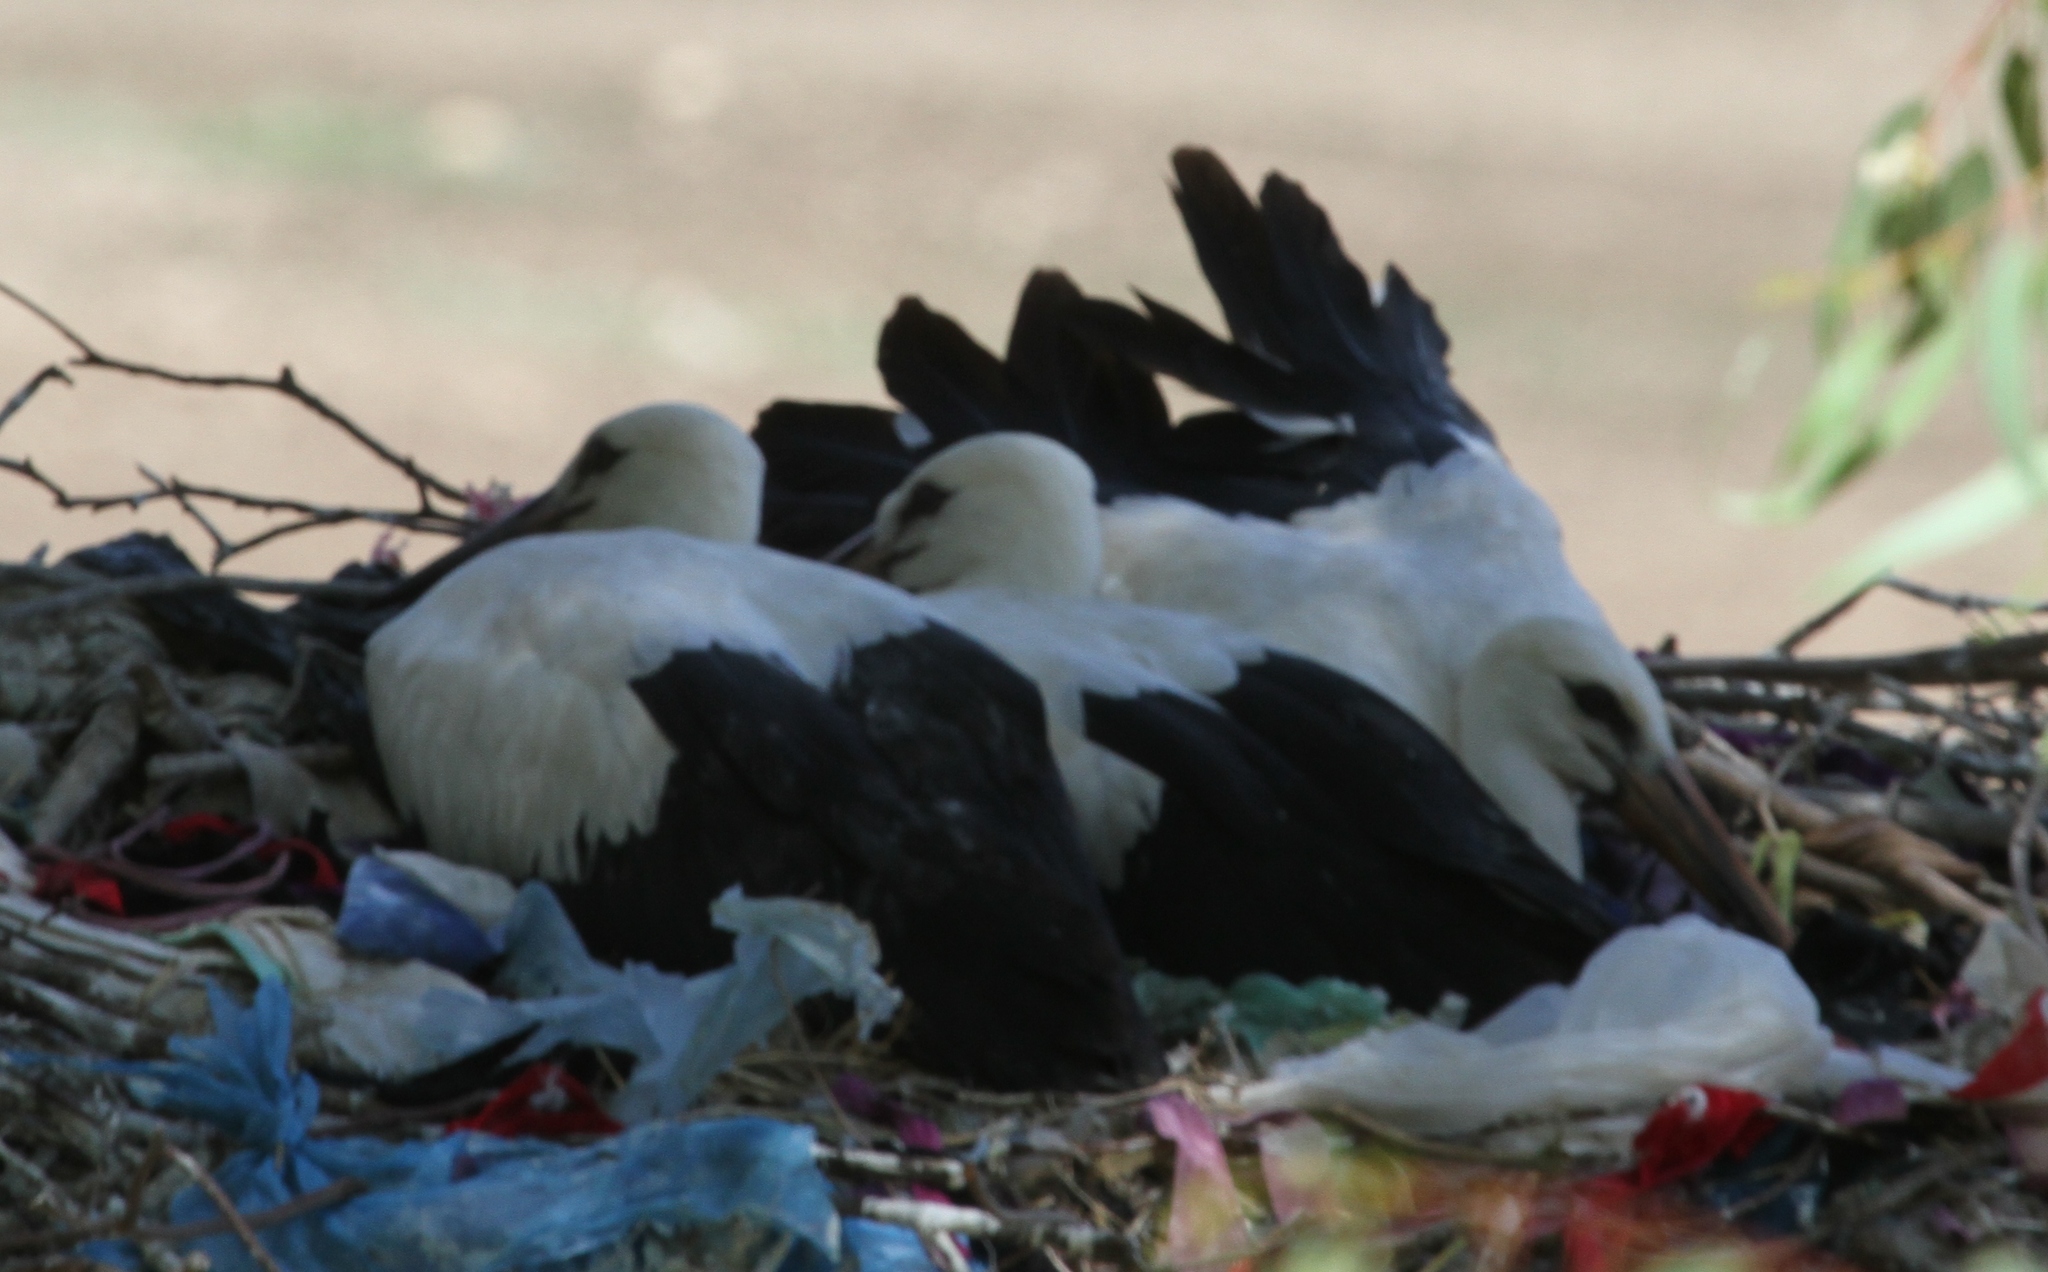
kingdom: Animalia
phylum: Chordata
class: Aves
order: Ciconiiformes
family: Ciconiidae
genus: Ciconia
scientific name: Ciconia ciconia
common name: White stork
